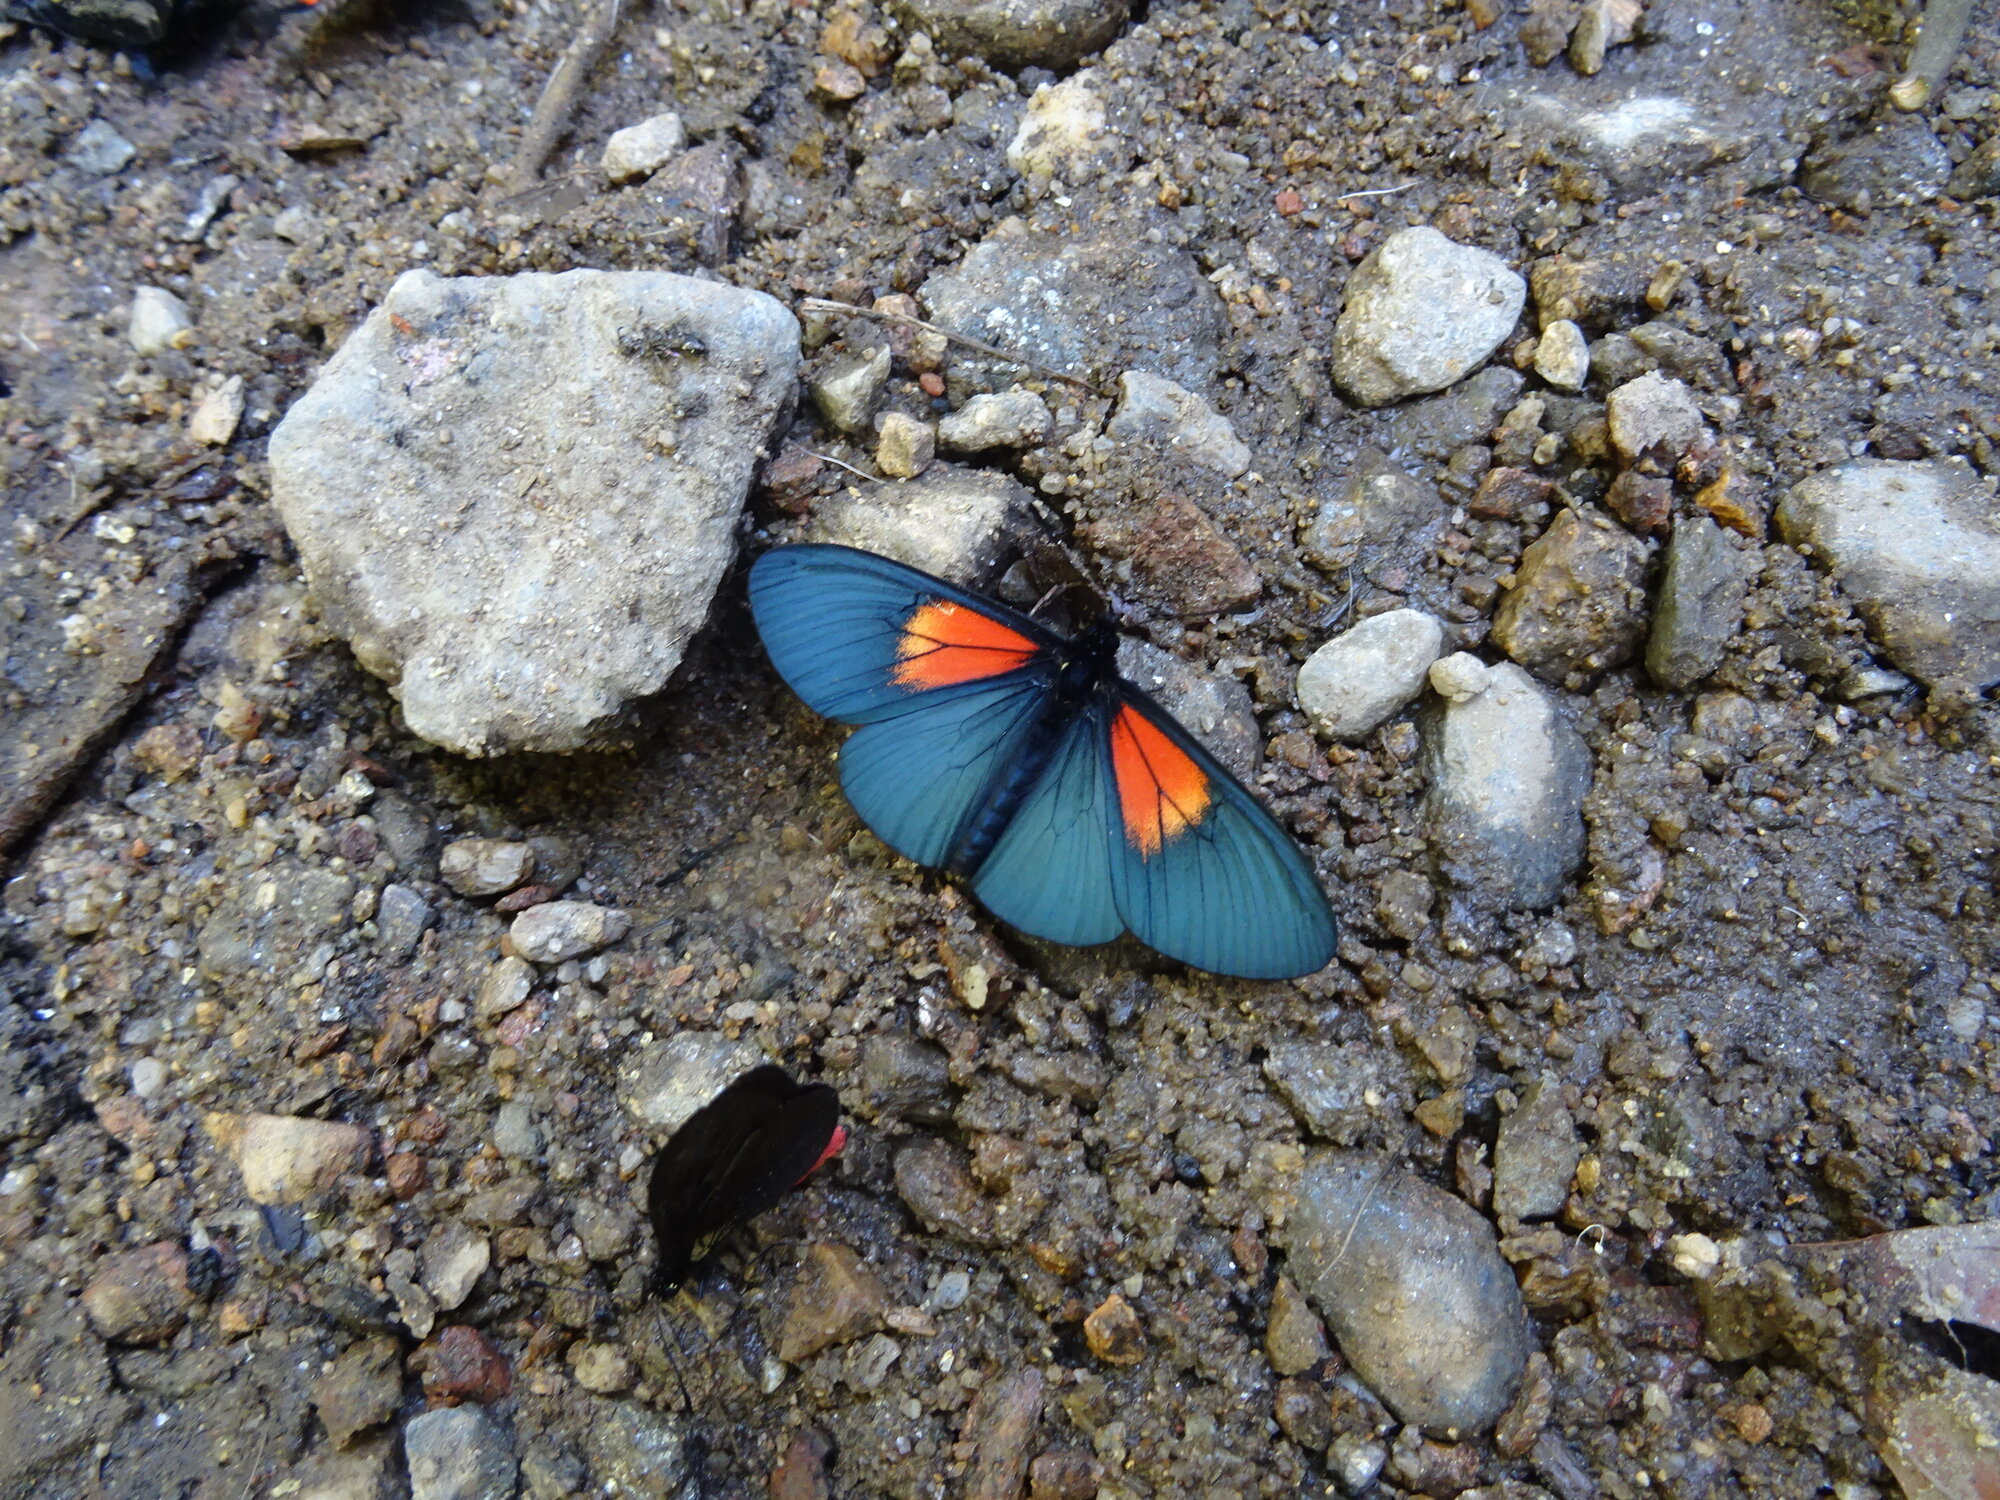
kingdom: Animalia
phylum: Arthropoda
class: Insecta
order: Lepidoptera
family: Nymphalidae
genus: Acraea
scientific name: Acraea Altinote ozomene
